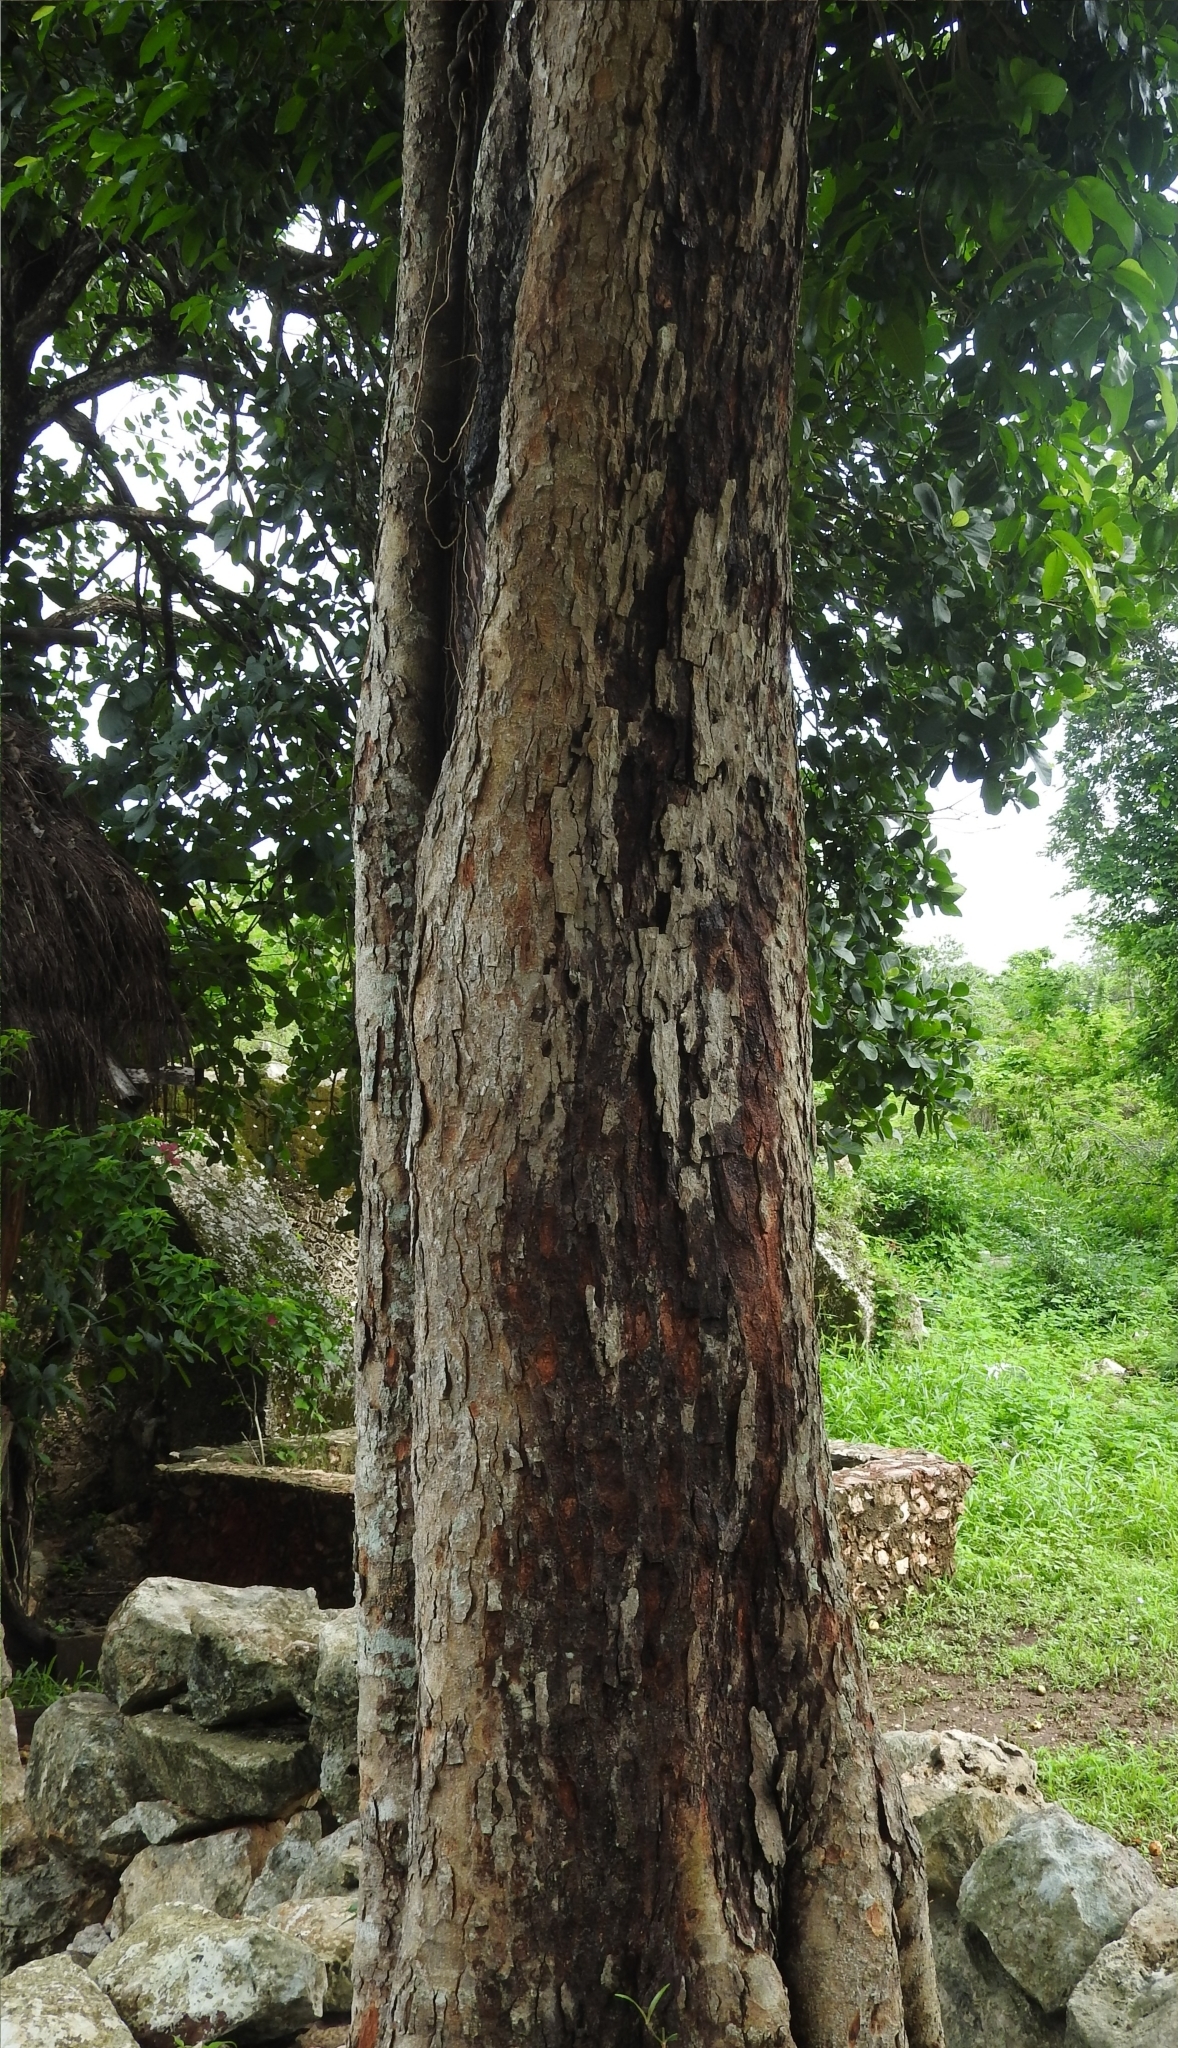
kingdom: Plantae
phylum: Tracheophyta
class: Magnoliopsida
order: Rosales
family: Moraceae
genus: Brosimum
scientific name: Brosimum alicastrum
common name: Breadnut
